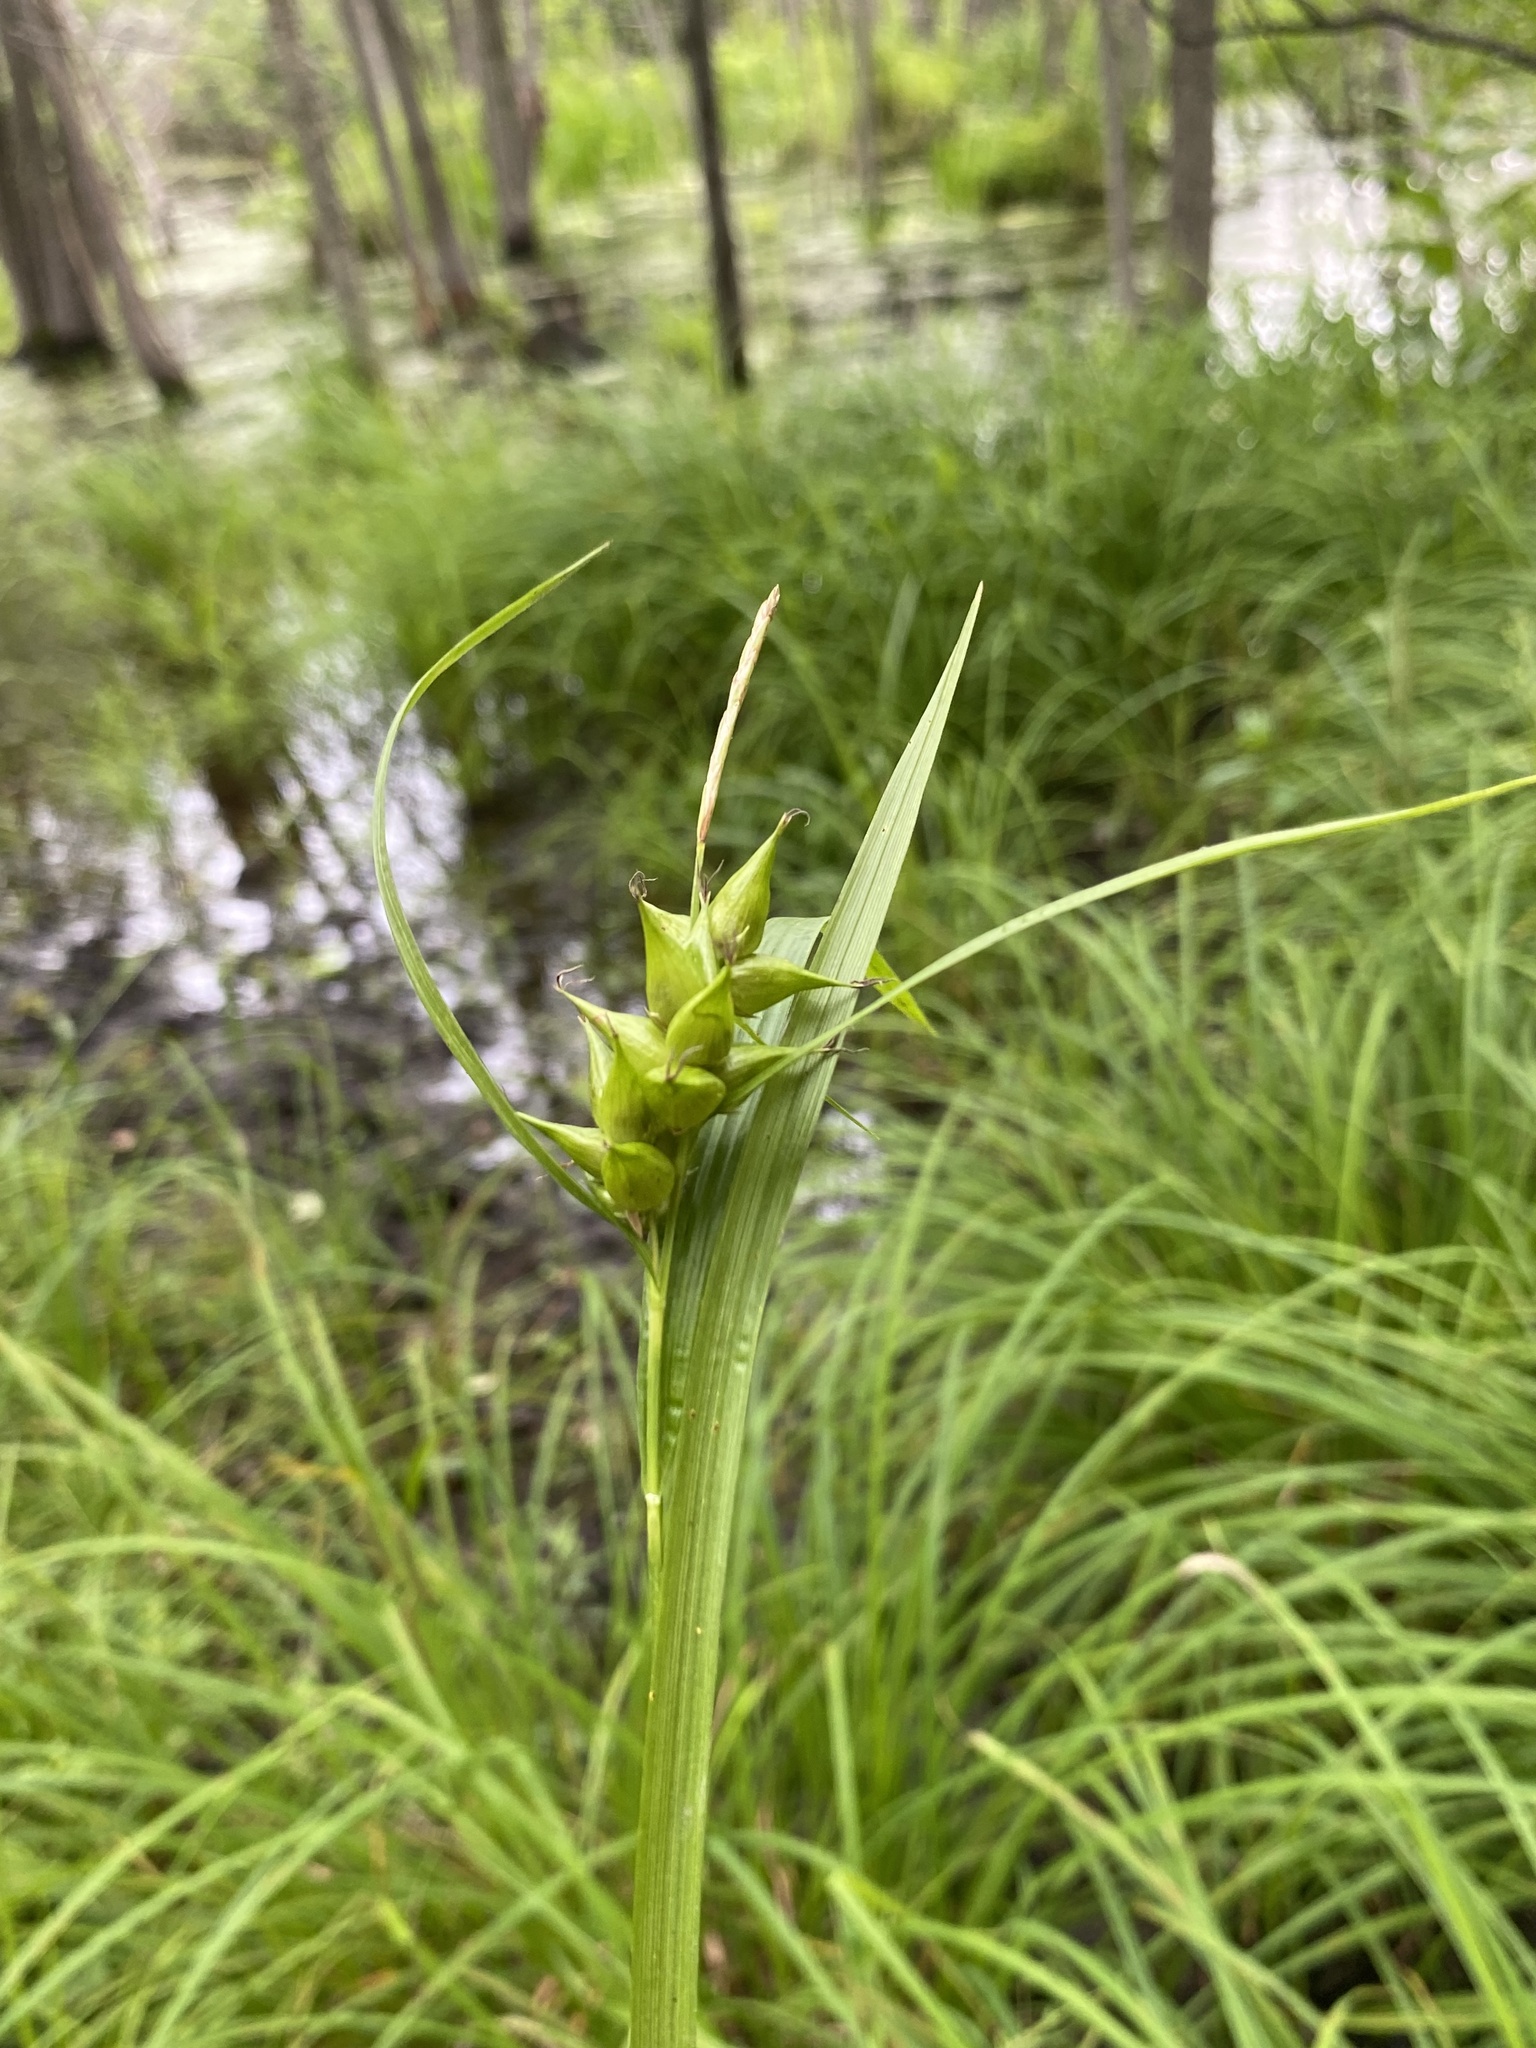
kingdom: Plantae
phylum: Tracheophyta
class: Liliopsida
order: Poales
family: Cyperaceae
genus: Carex
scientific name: Carex intumescens
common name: Greater bladder sedge
